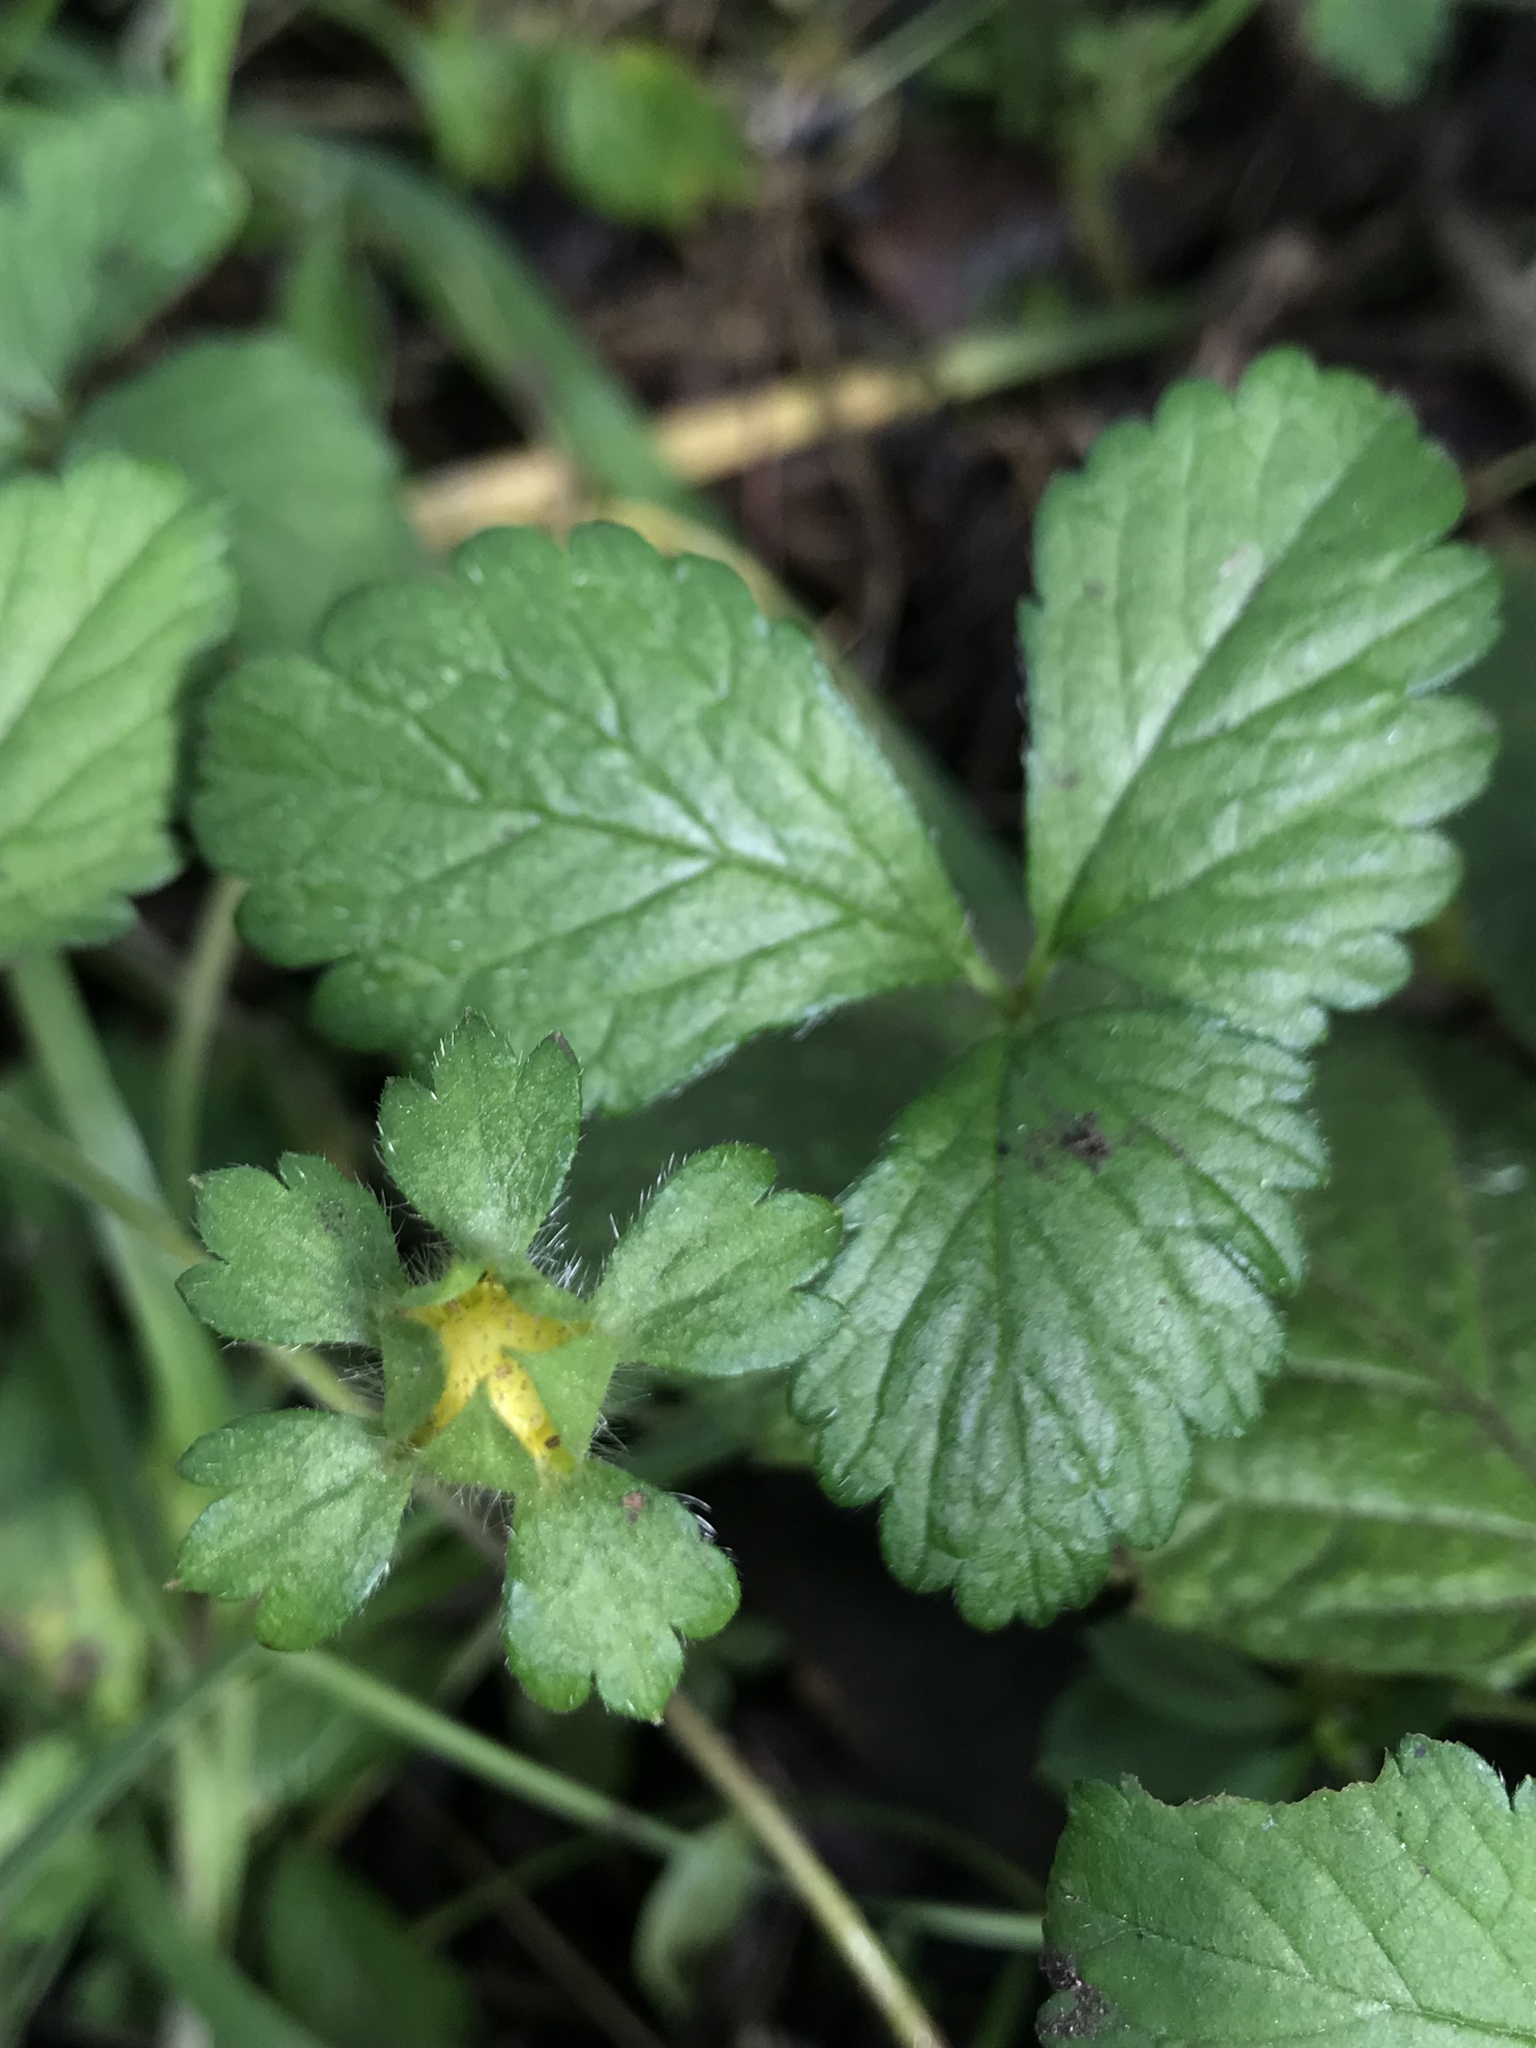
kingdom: Plantae
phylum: Tracheophyta
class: Magnoliopsida
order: Rosales
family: Rosaceae
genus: Potentilla
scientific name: Potentilla indica
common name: Yellow-flowered strawberry
